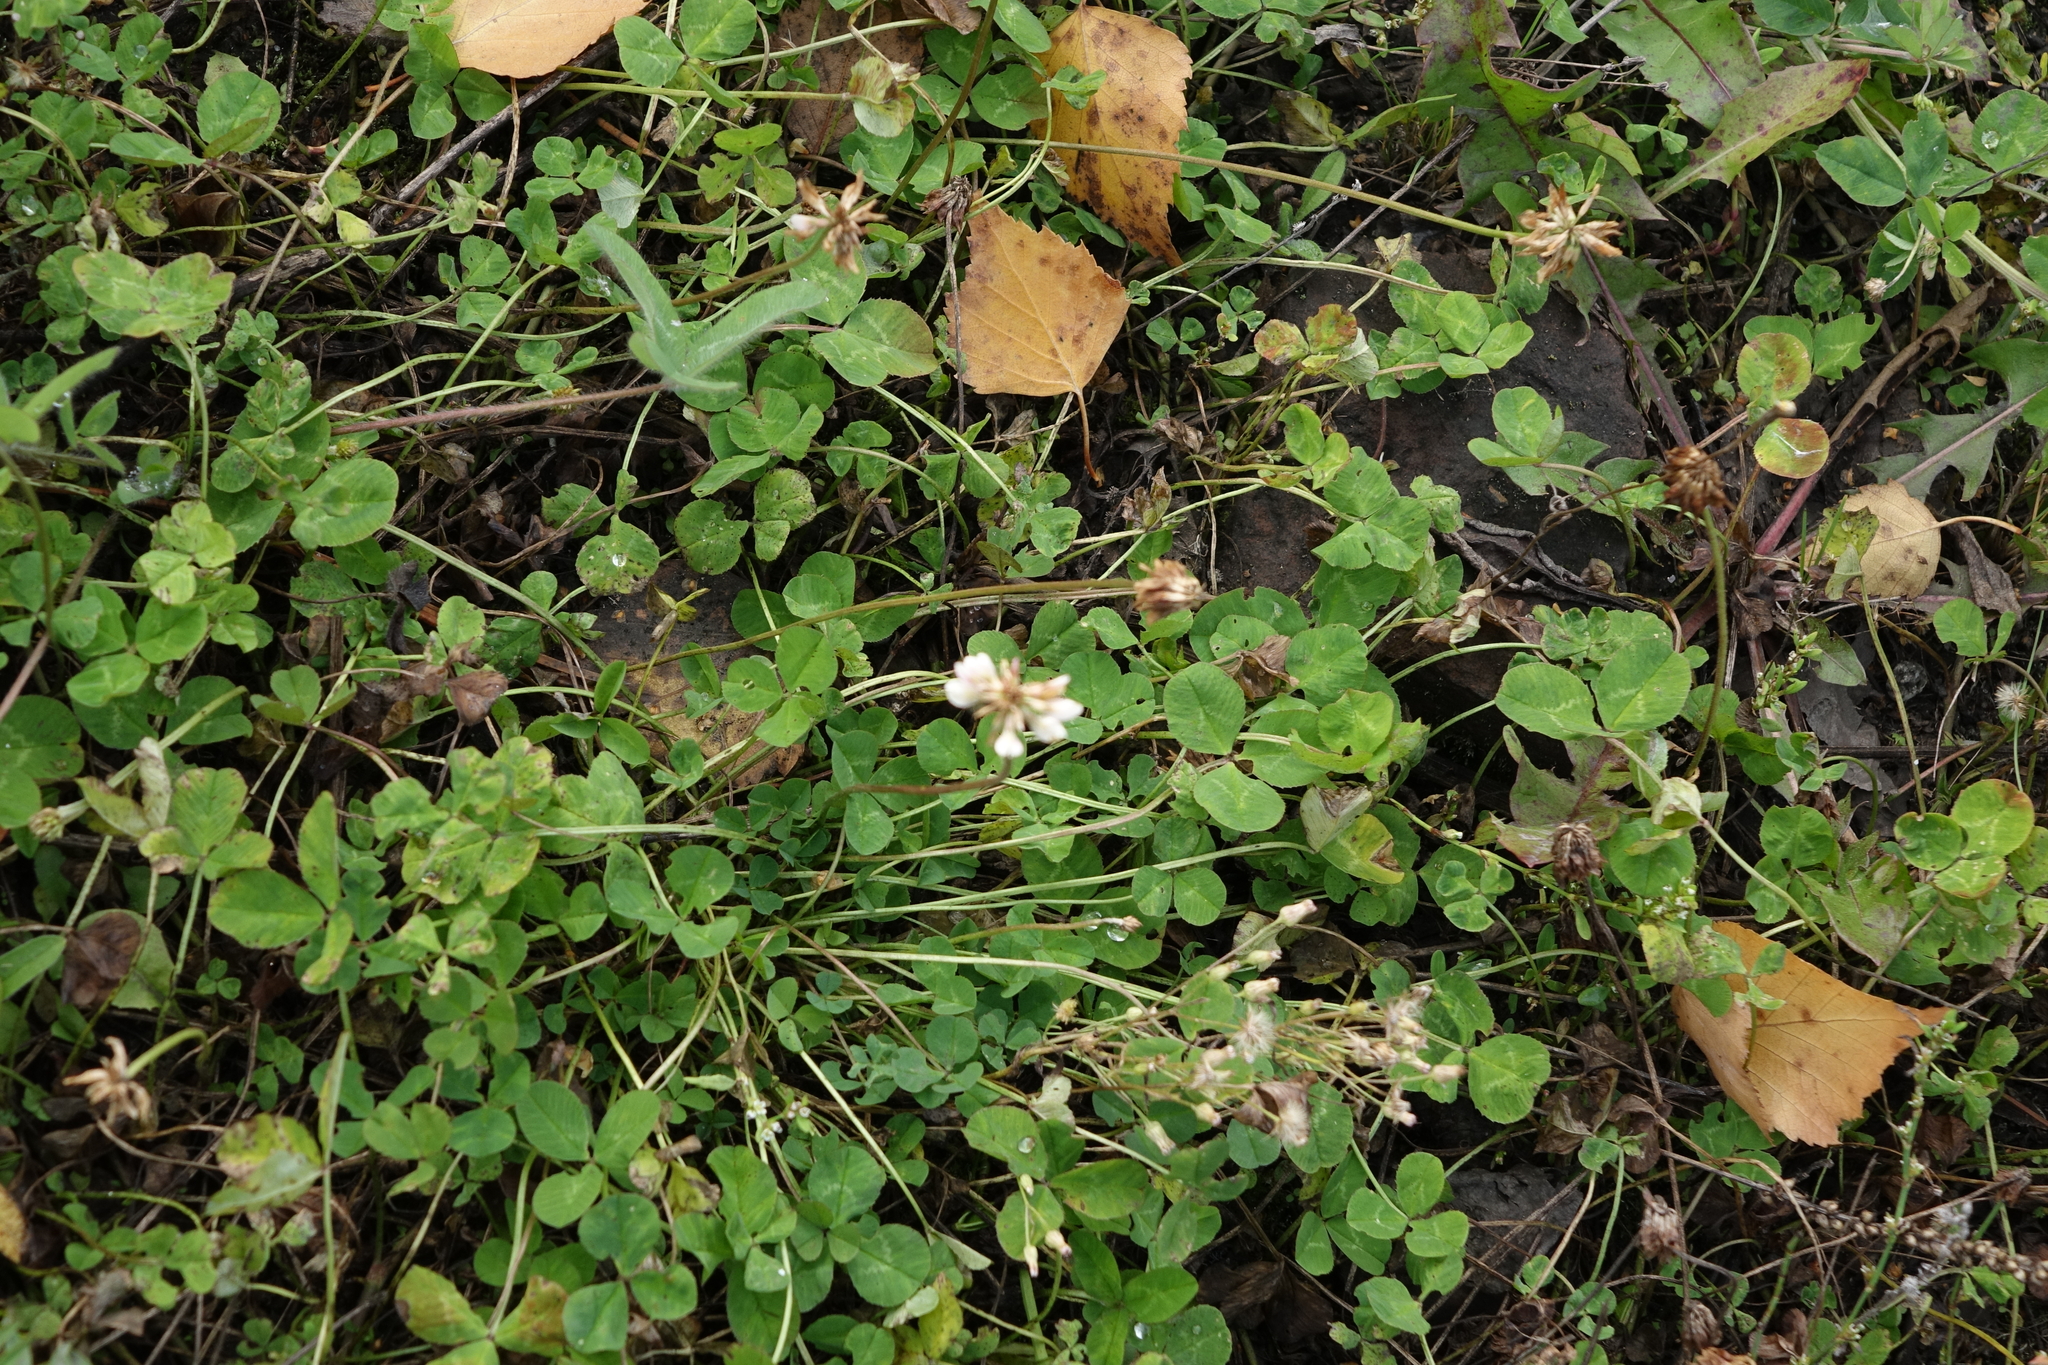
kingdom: Plantae
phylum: Tracheophyta
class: Magnoliopsida
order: Fabales
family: Fabaceae
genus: Trifolium
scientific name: Trifolium repens
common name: White clover
